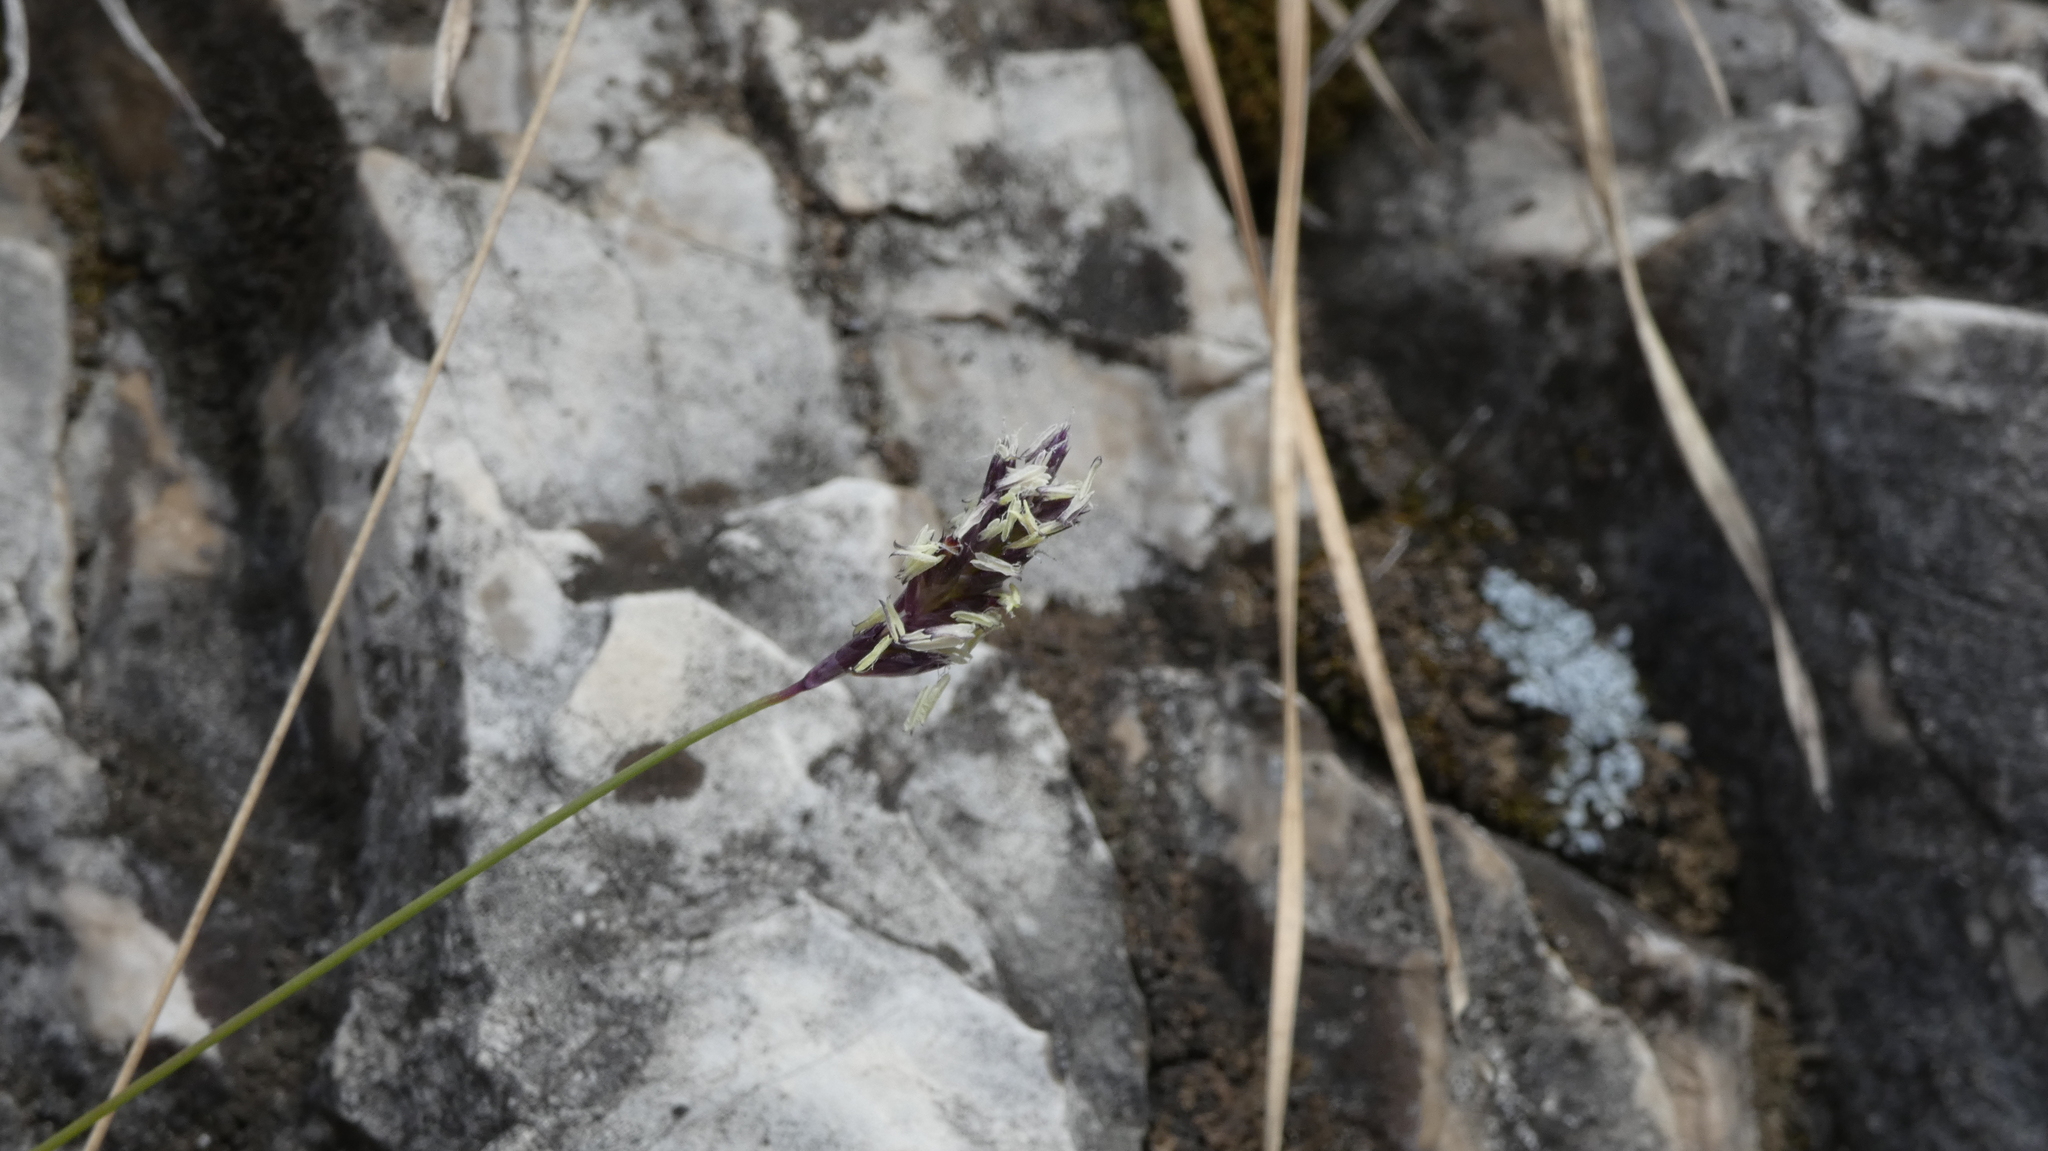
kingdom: Plantae
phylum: Tracheophyta
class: Liliopsida
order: Poales
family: Poaceae
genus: Sesleria
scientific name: Sesleria caerulea
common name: Blue moor-grass
